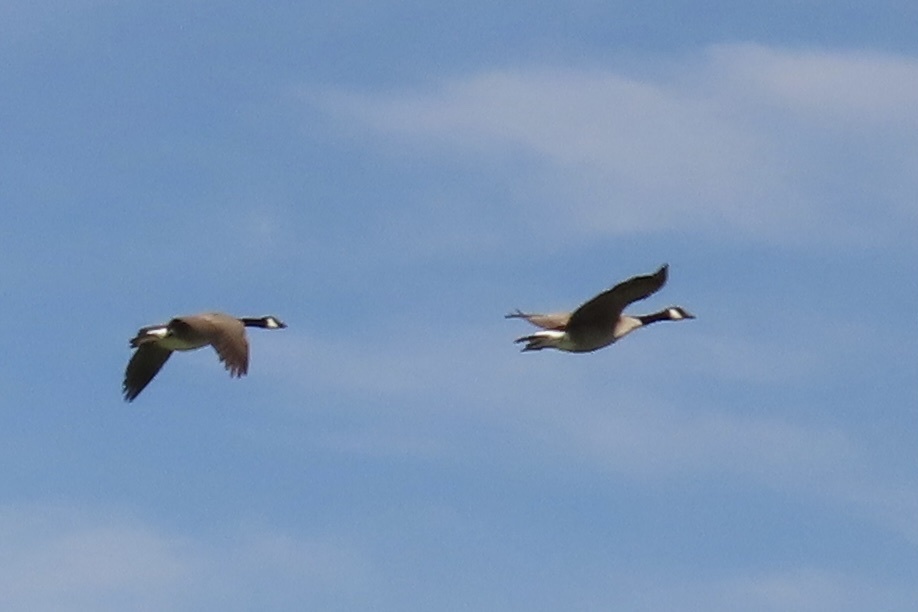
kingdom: Animalia
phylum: Chordata
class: Aves
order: Anseriformes
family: Anatidae
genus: Branta
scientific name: Branta canadensis
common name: Canada goose
